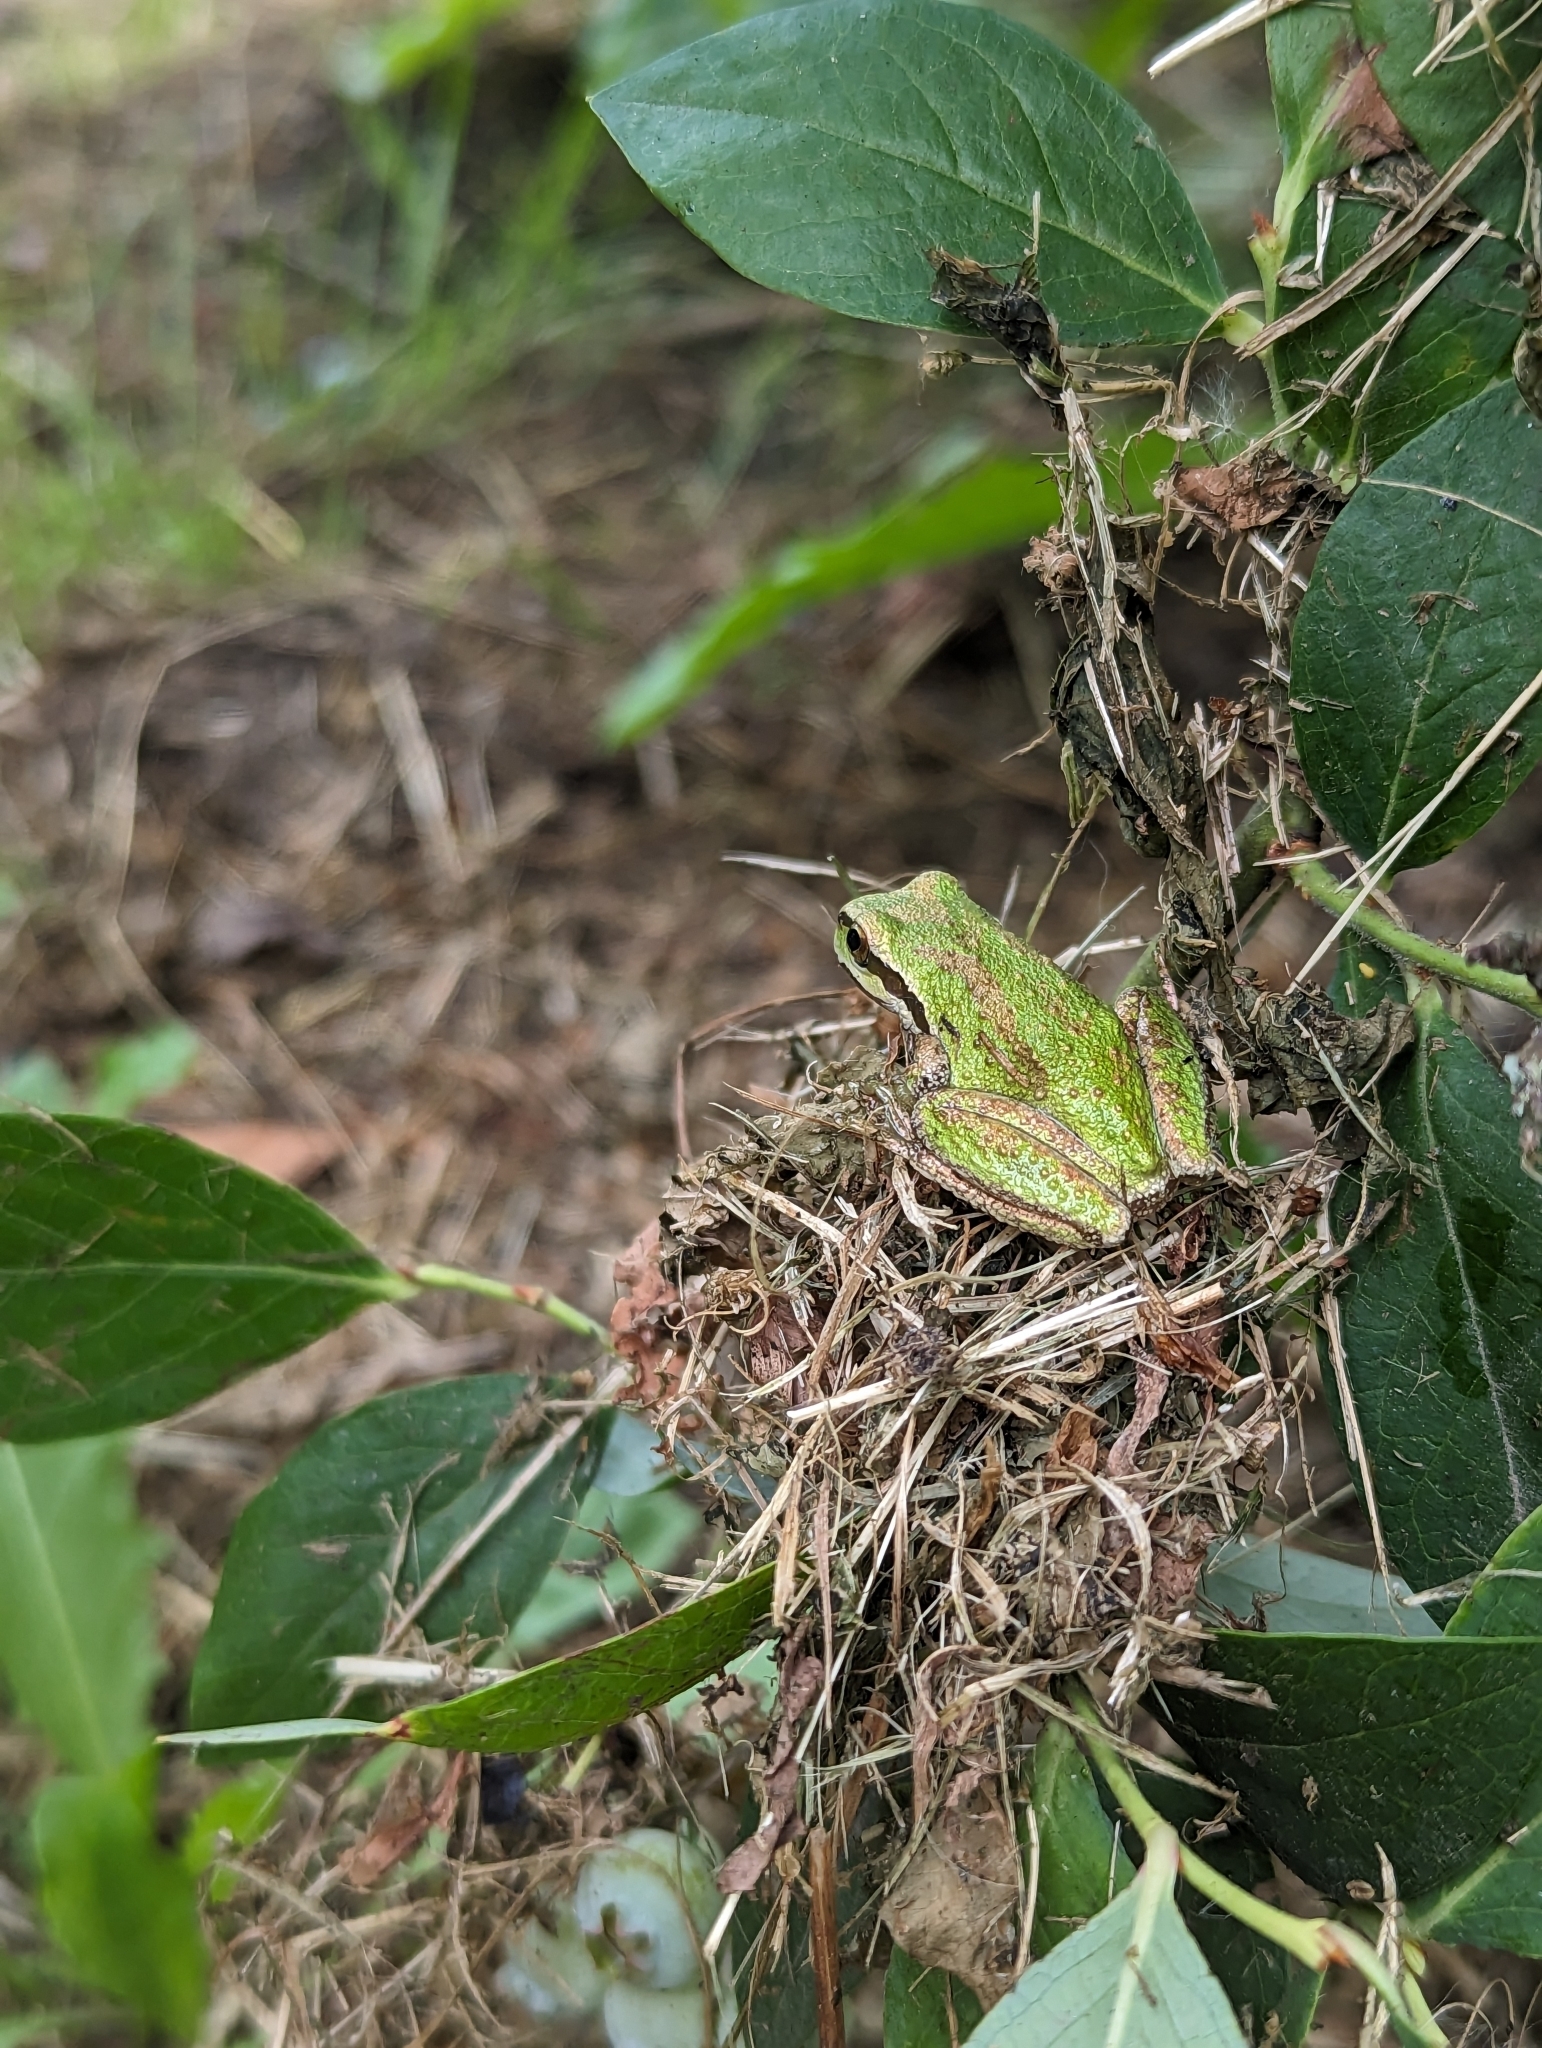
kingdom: Animalia
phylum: Chordata
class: Amphibia
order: Anura
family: Hylidae
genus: Pseudacris
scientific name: Pseudacris regilla
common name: Pacific chorus frog
